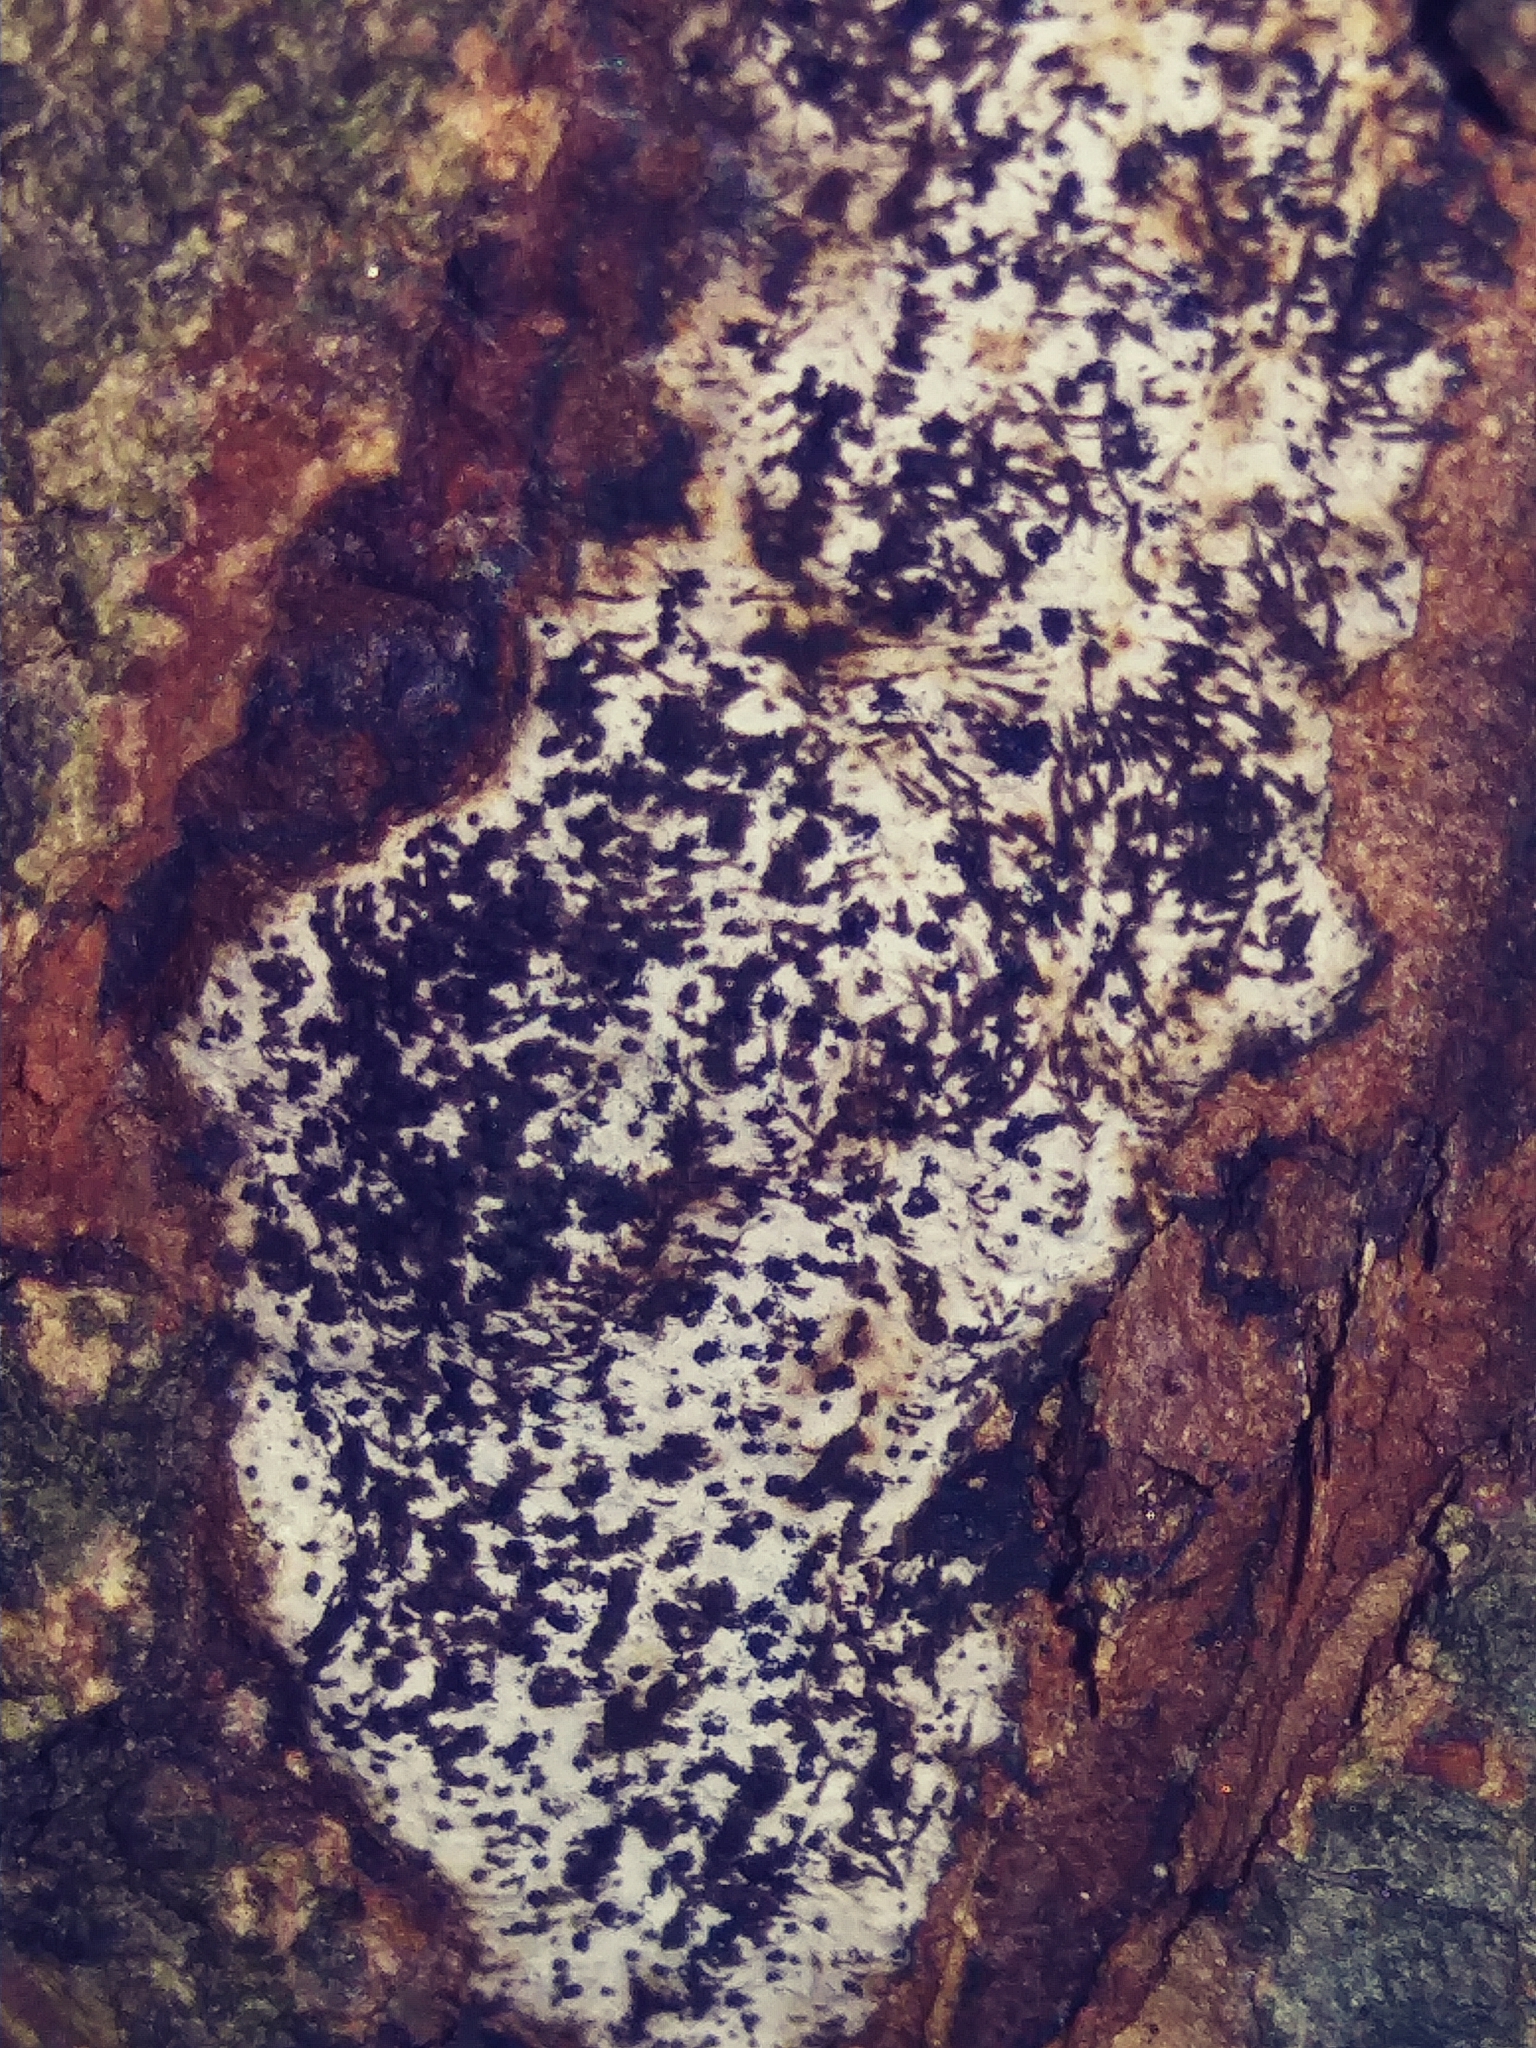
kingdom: Fungi
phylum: Ascomycota
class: Sordariomycetes
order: Xylariales
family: Graphostromataceae
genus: Biscogniauxia
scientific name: Biscogniauxia atropunctata
